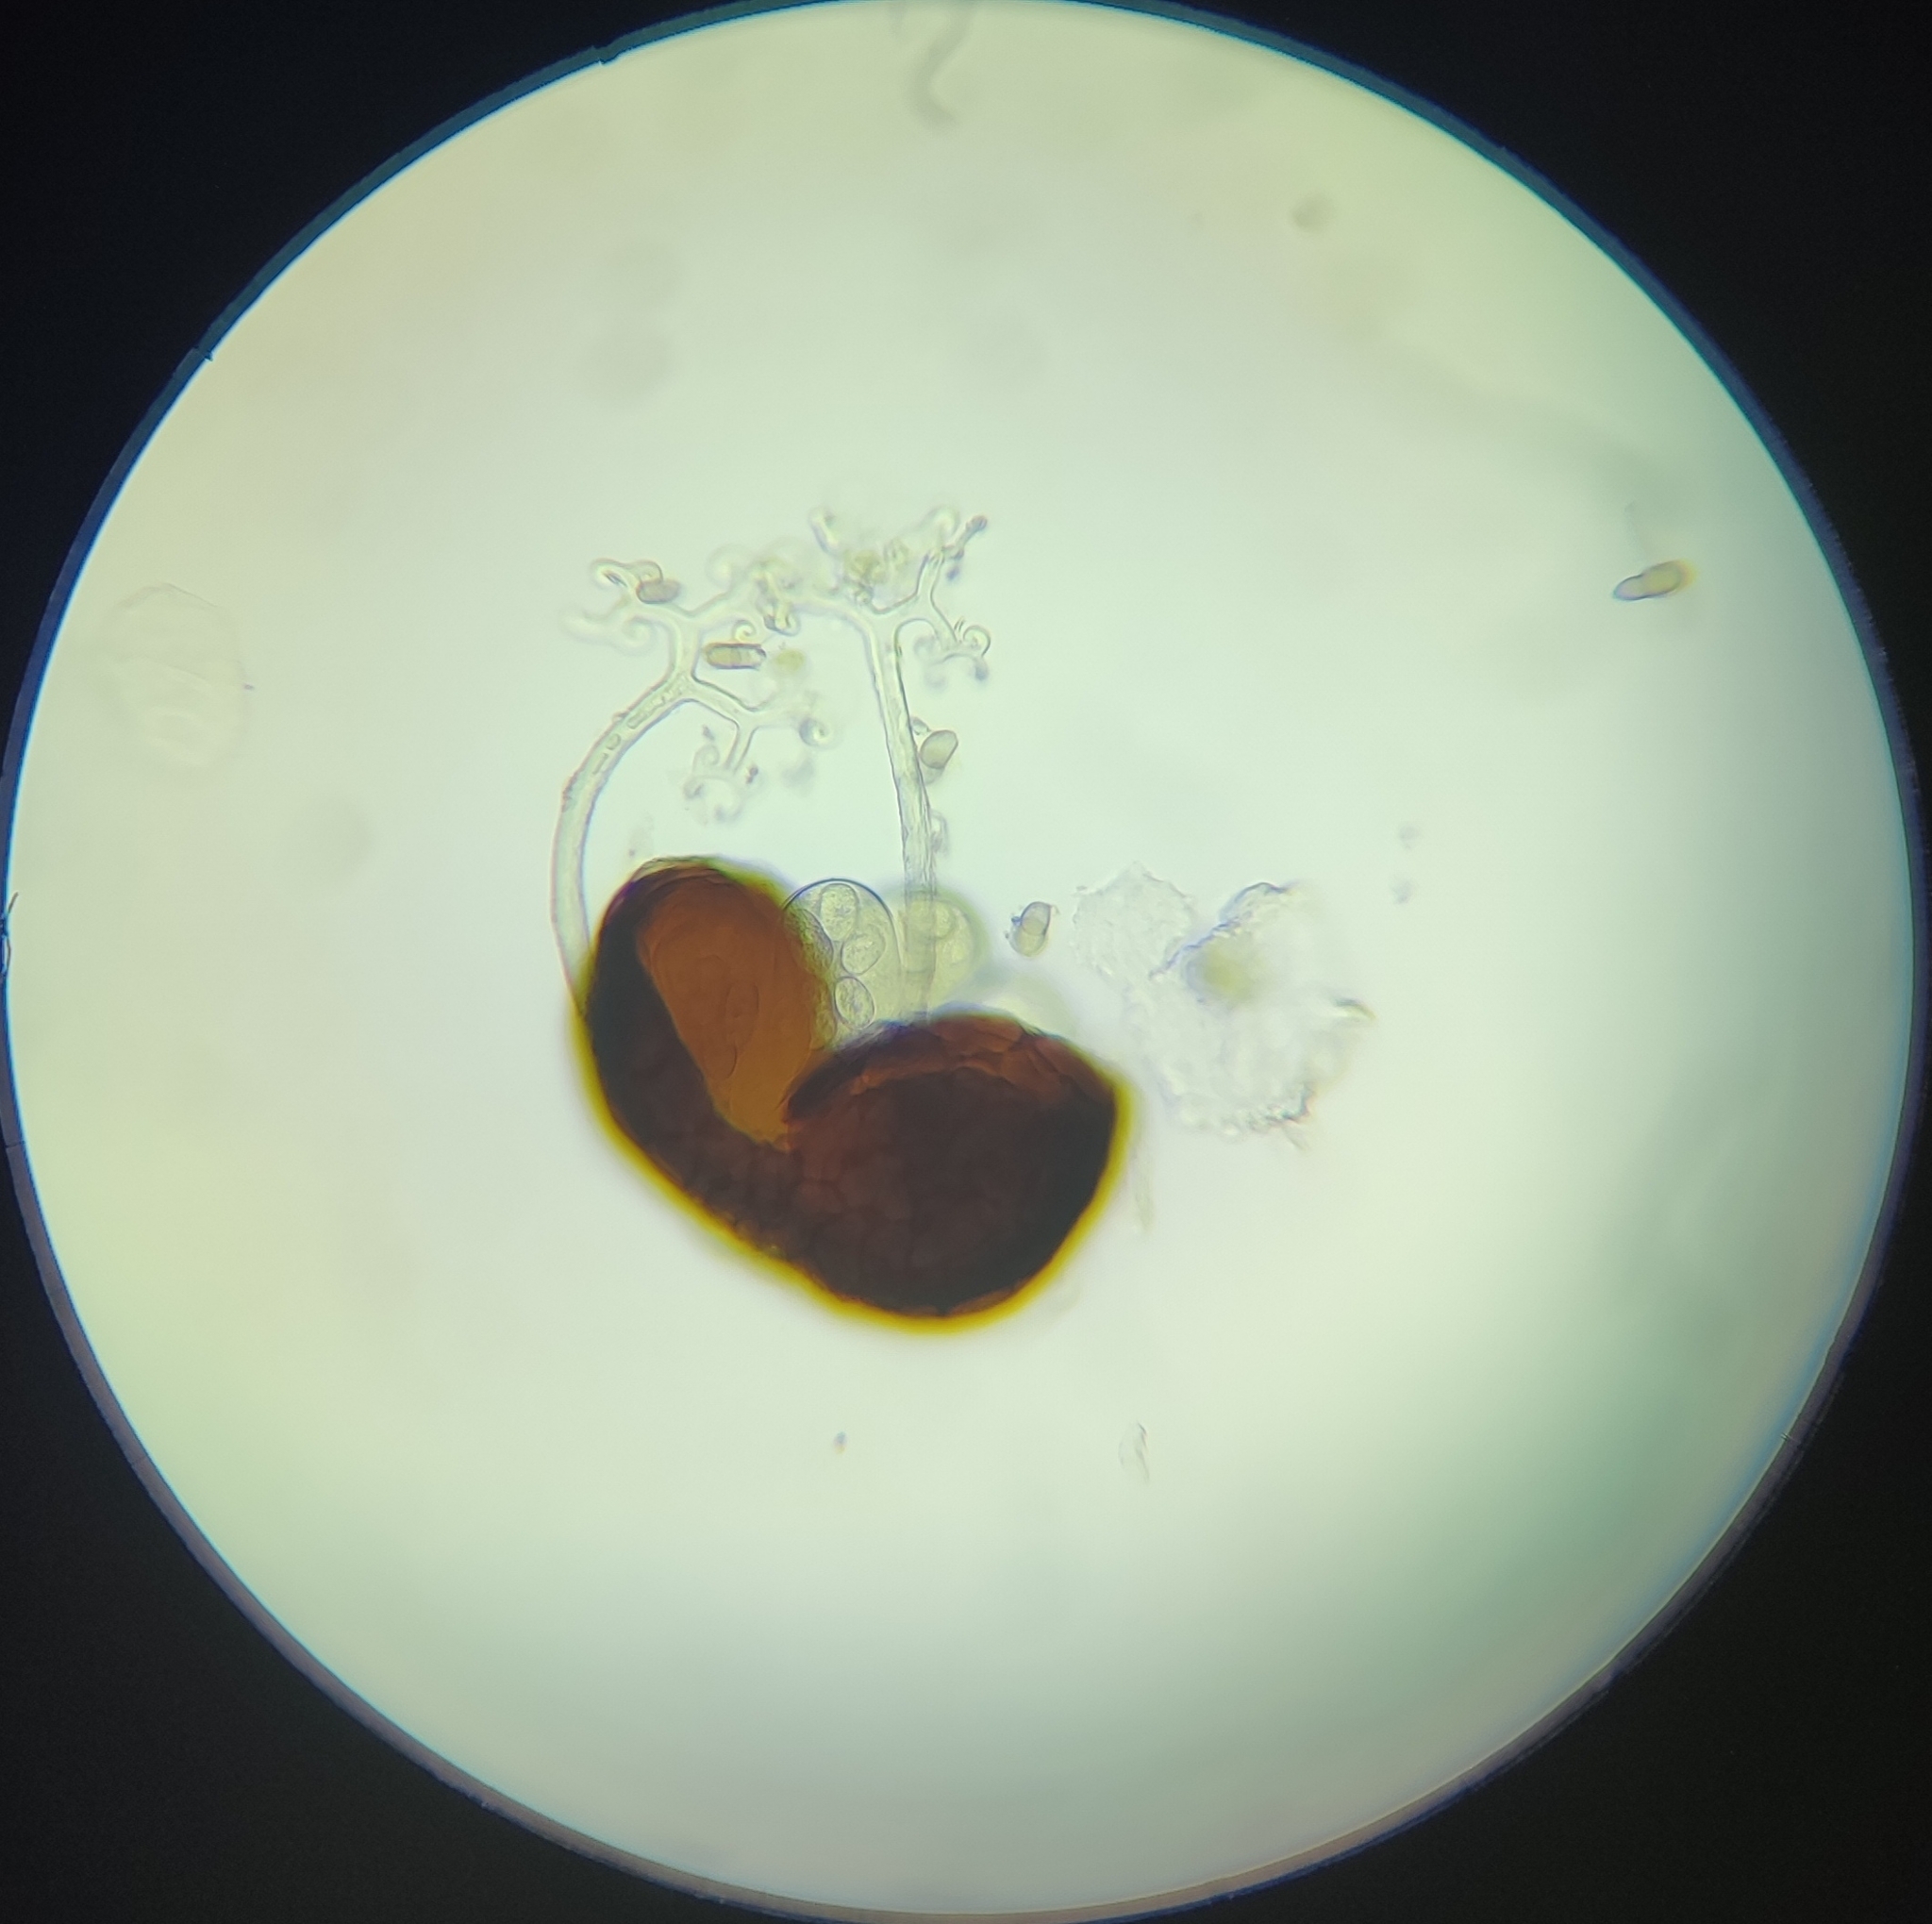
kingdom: Fungi
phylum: Ascomycota
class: Leotiomycetes
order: Helotiales
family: Erysiphaceae
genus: Erysiphe
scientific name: Erysiphe syringae
